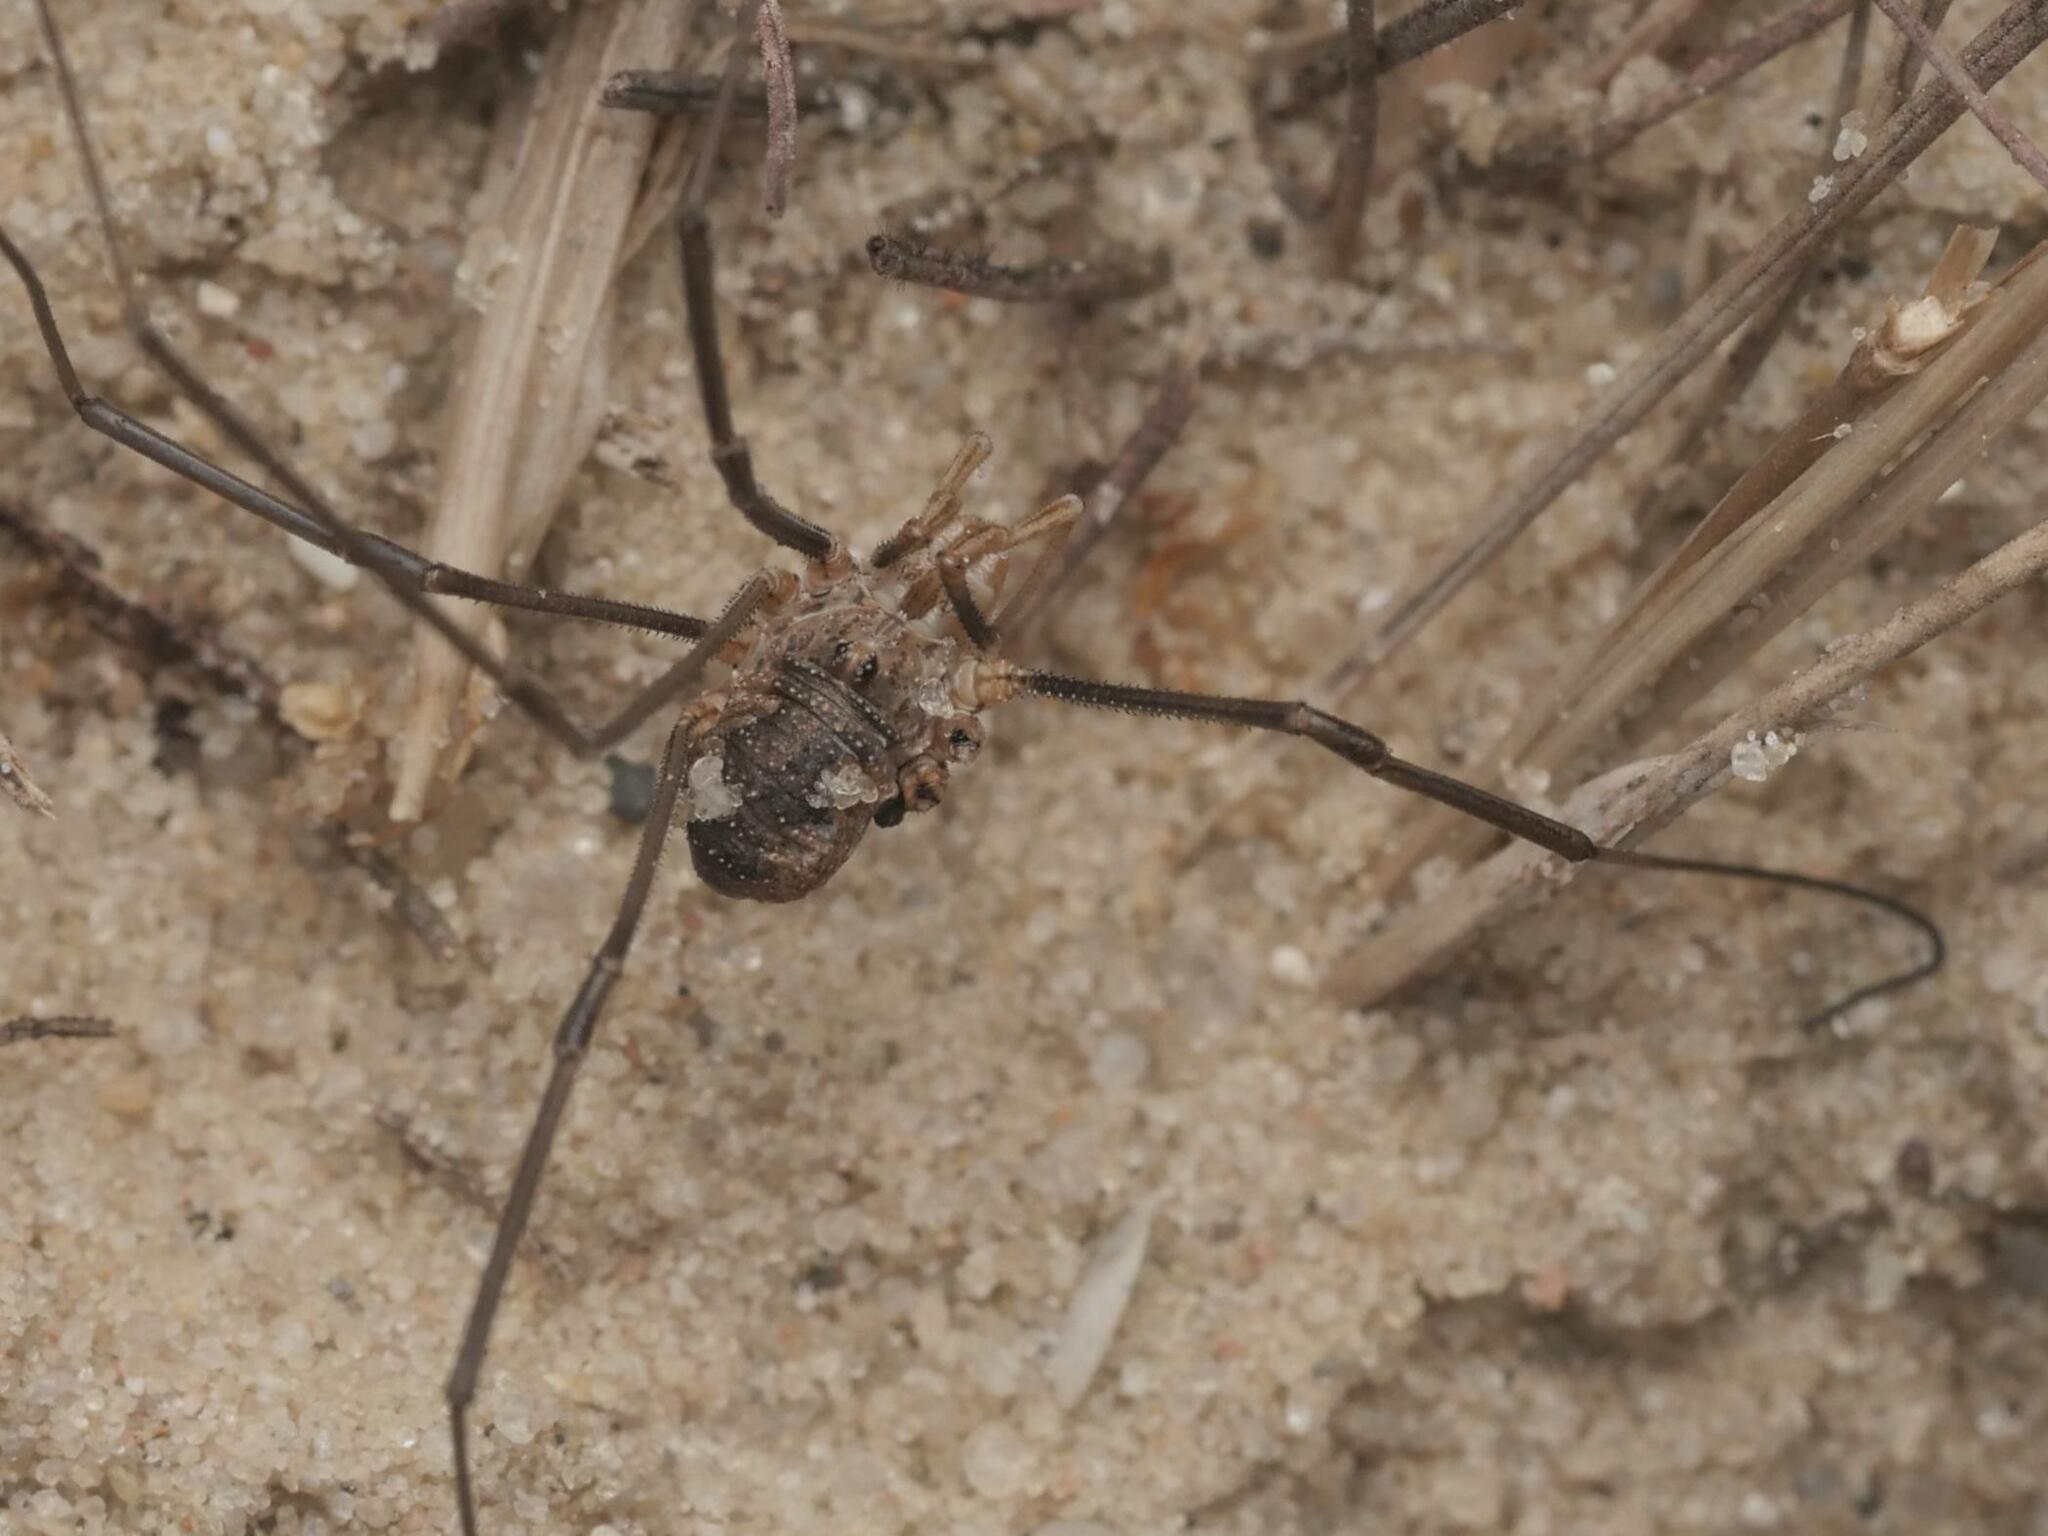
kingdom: Animalia
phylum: Arthropoda
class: Arachnida
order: Opiliones
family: Phalangiidae
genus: Phalangium
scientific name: Phalangium opilio
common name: Daddy longleg
